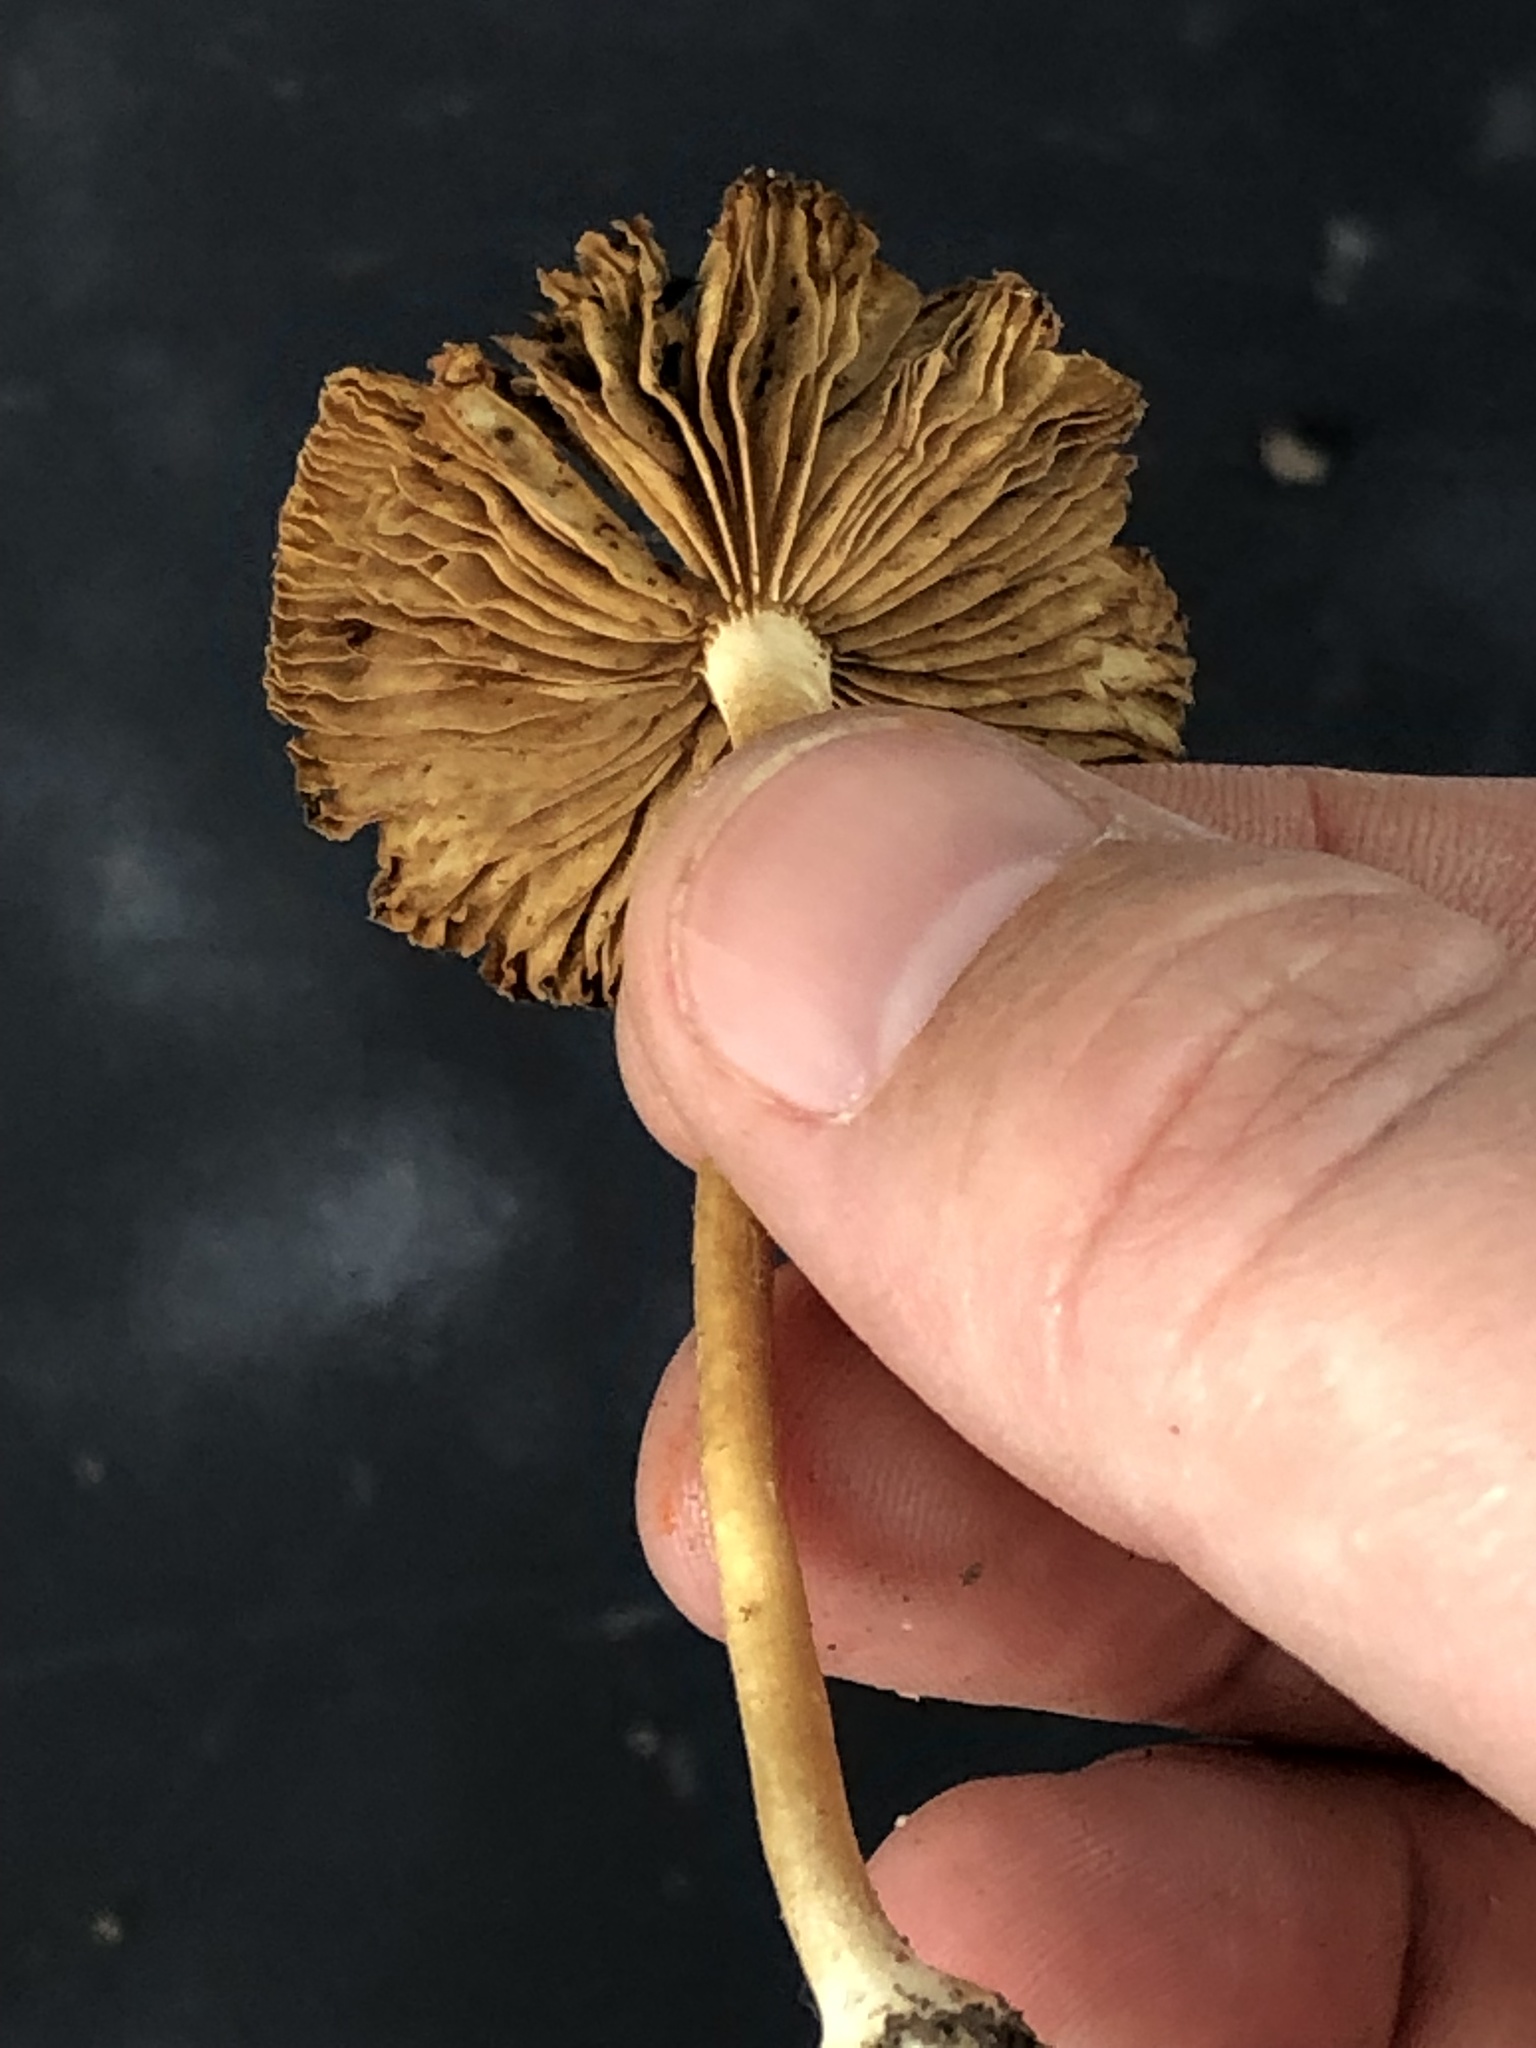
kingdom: Fungi
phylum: Basidiomycota
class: Agaricomycetes
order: Agaricales
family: Inocybaceae
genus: Pseudosperma
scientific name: Pseudosperma sororium
